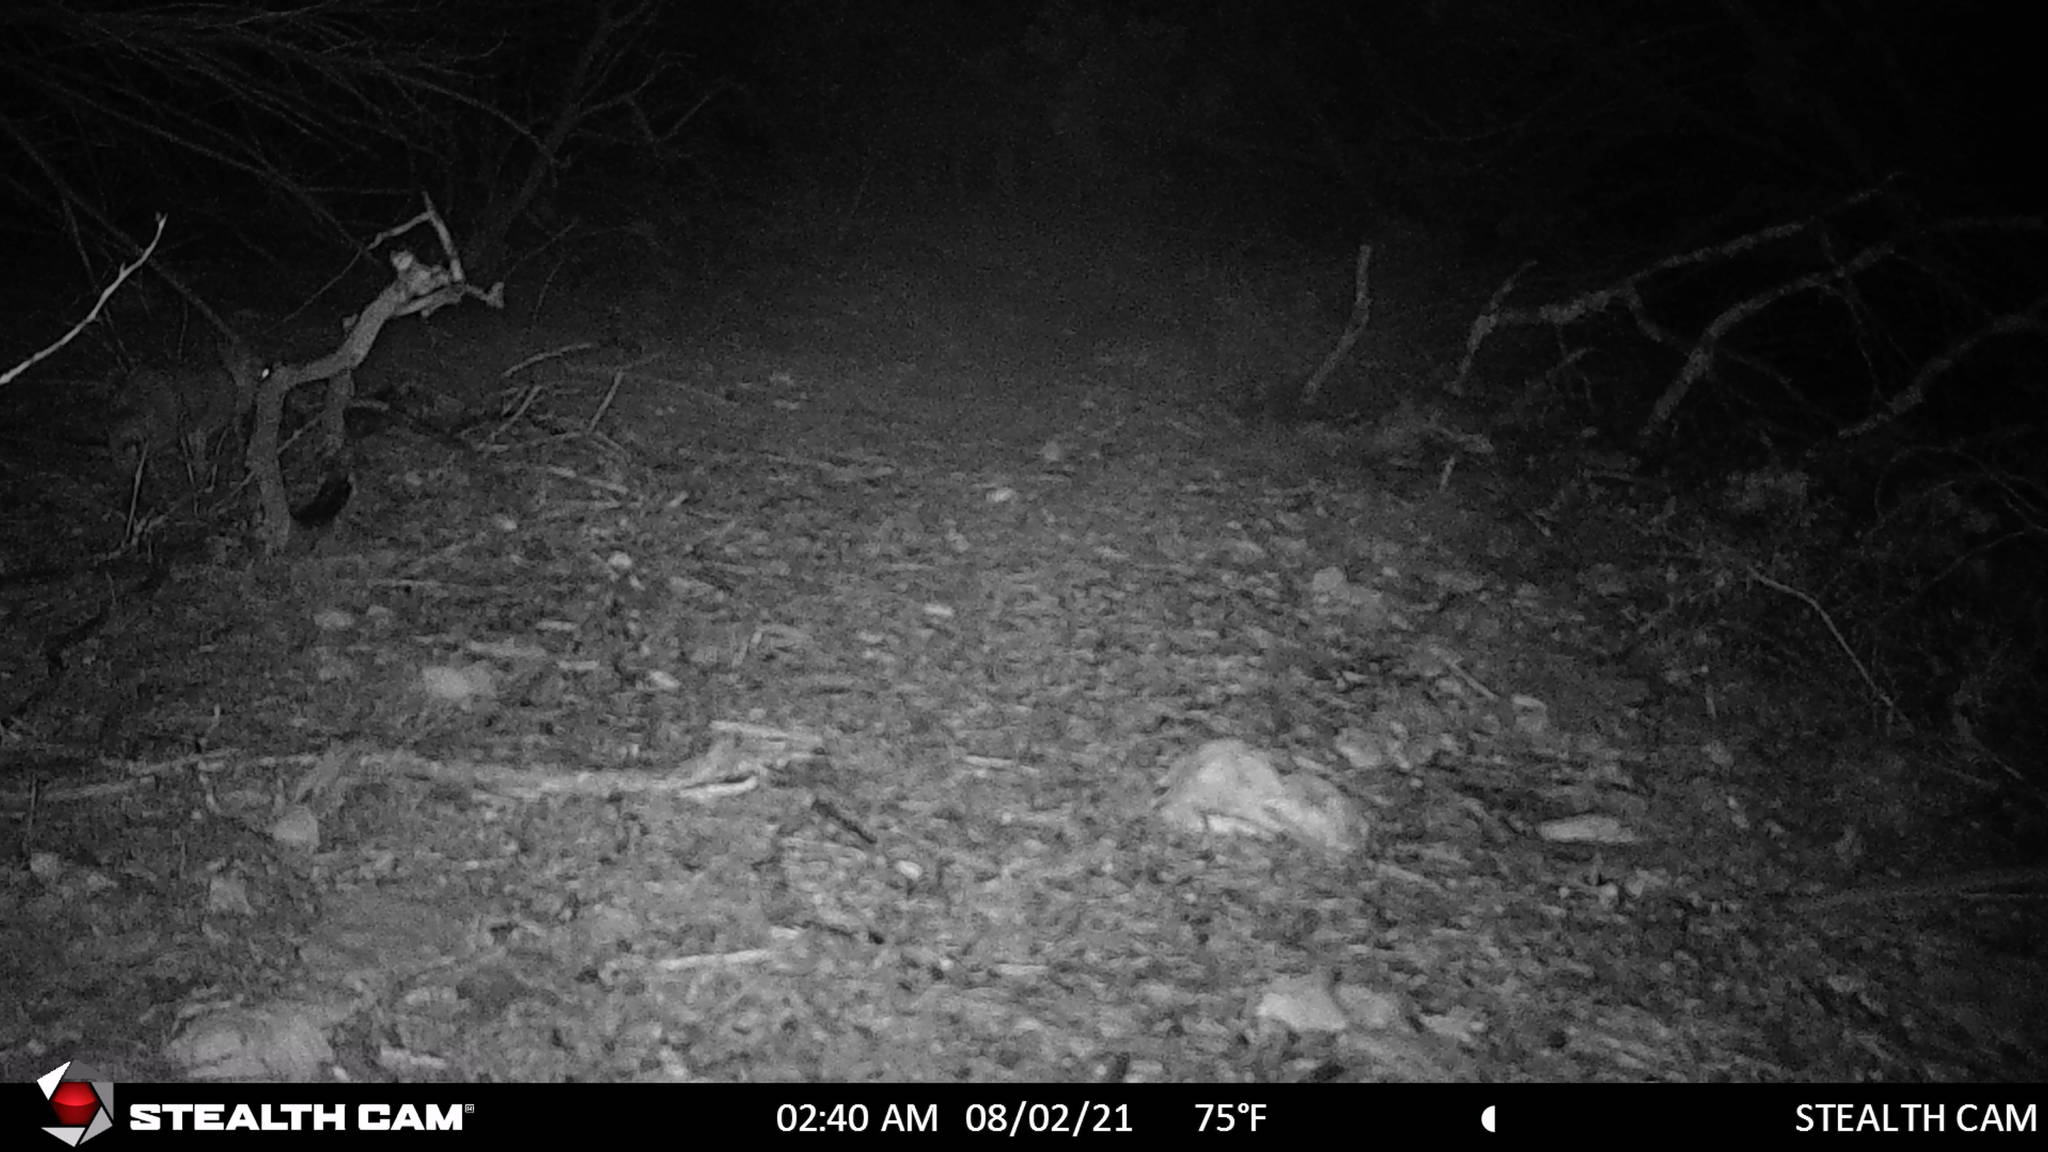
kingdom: Animalia
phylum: Chordata
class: Mammalia
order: Lagomorpha
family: Leporidae
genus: Sylvilagus
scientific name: Sylvilagus floridanus
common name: Eastern cottontail
